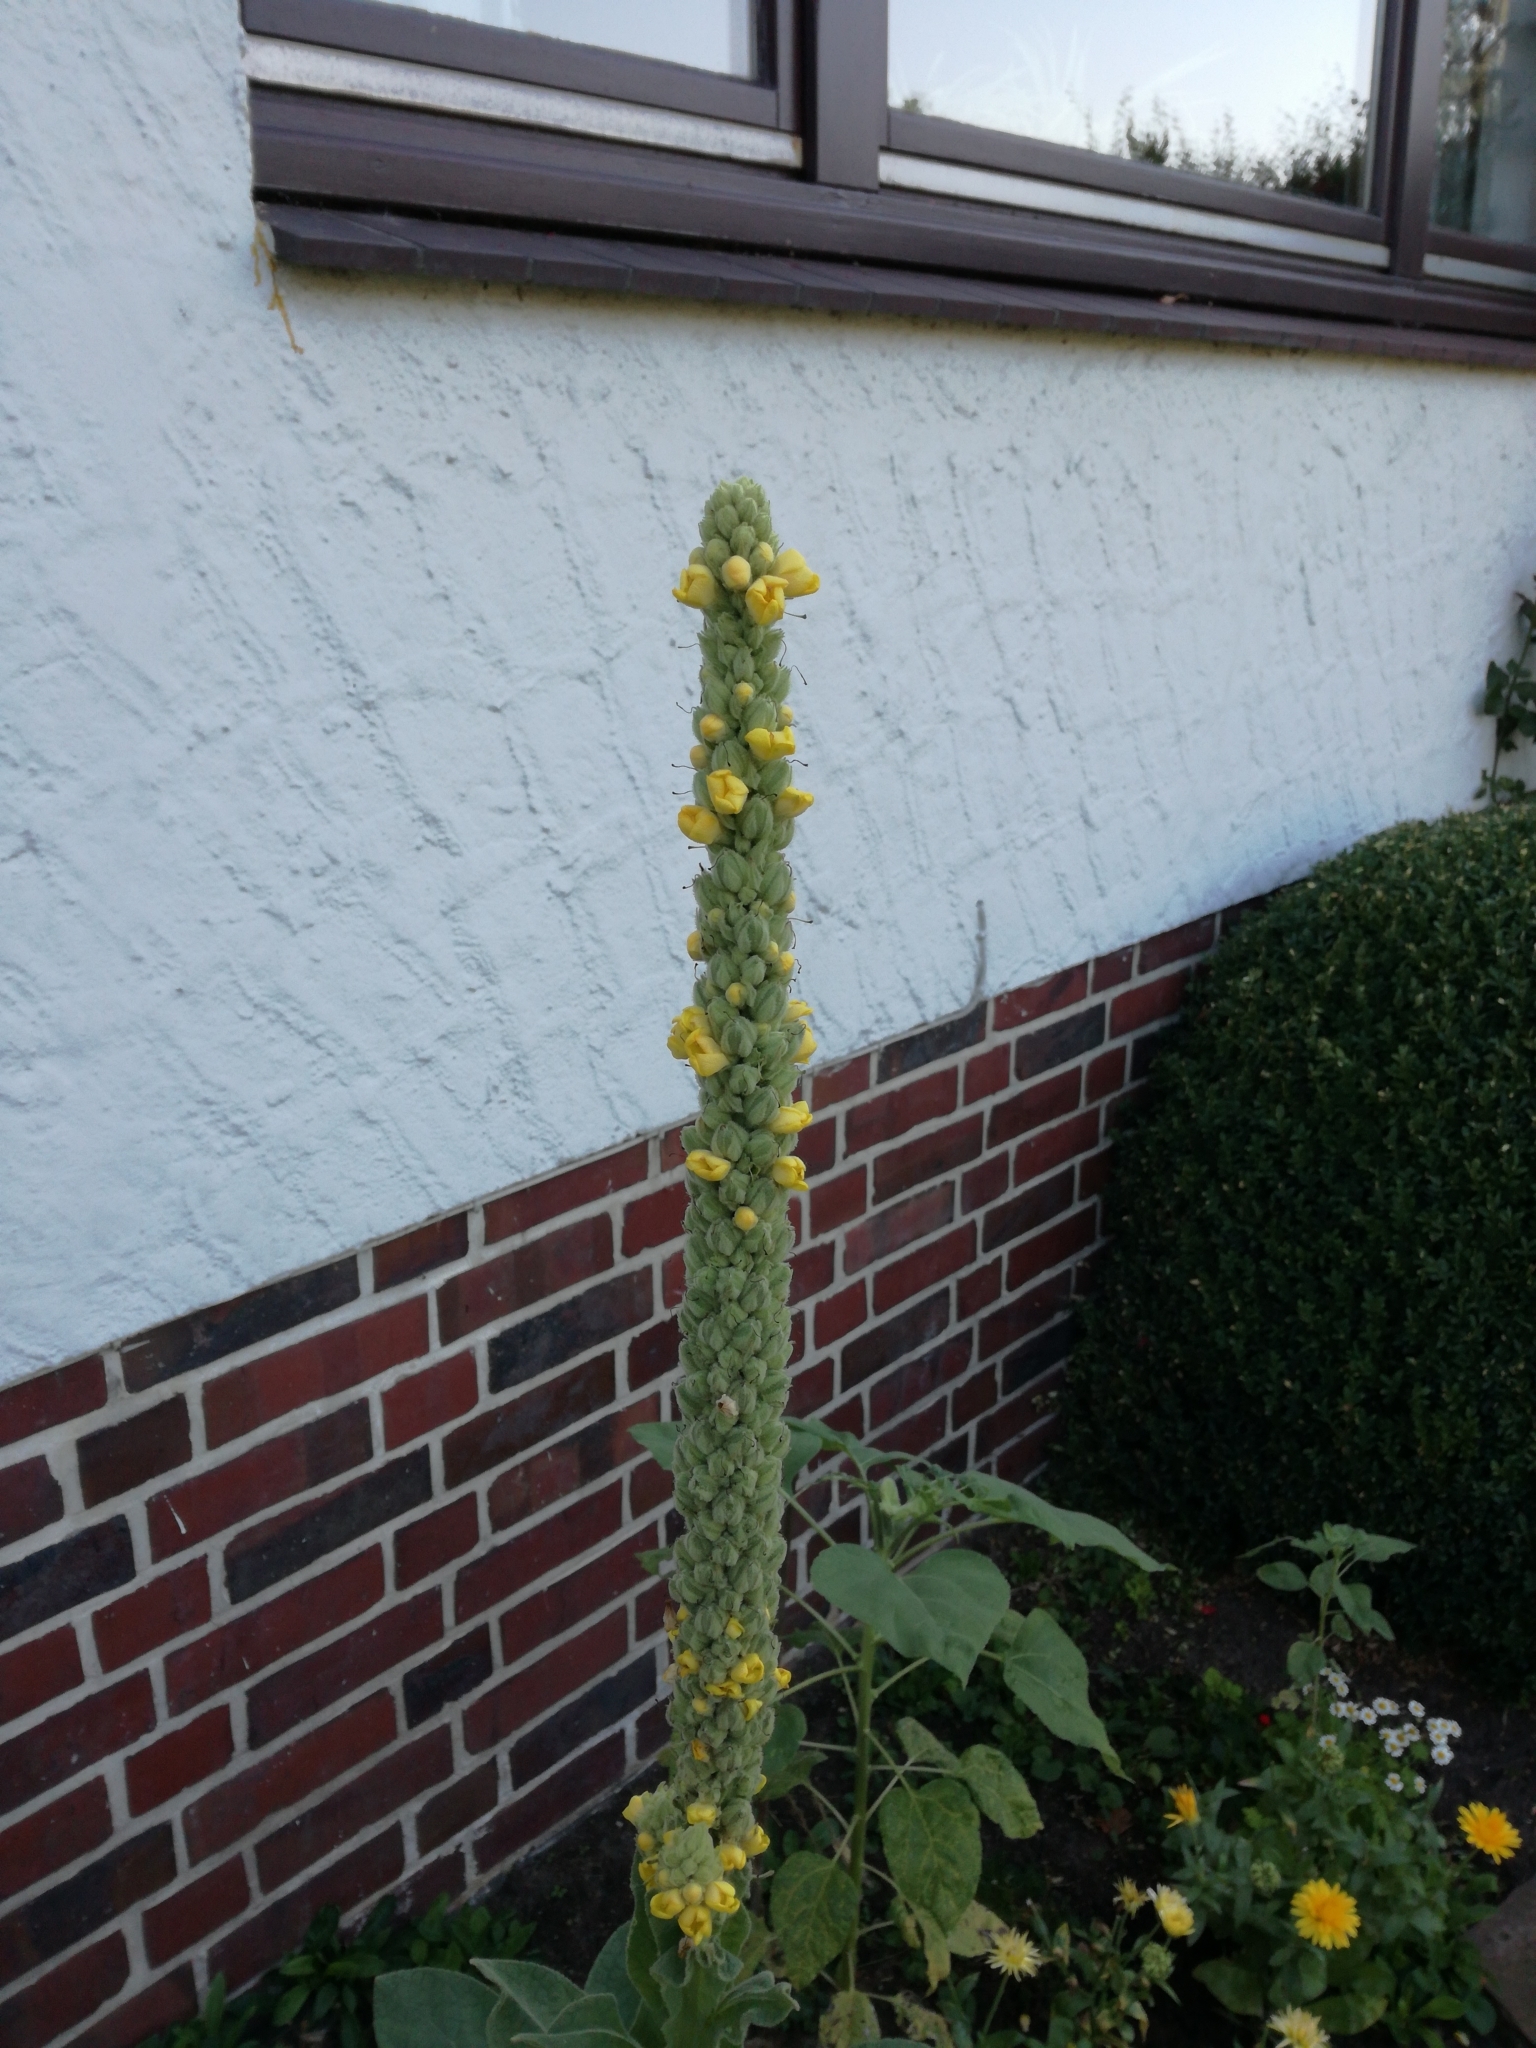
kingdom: Plantae
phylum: Tracheophyta
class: Magnoliopsida
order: Lamiales
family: Scrophulariaceae
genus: Verbascum
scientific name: Verbascum thapsus
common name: Common mullein
